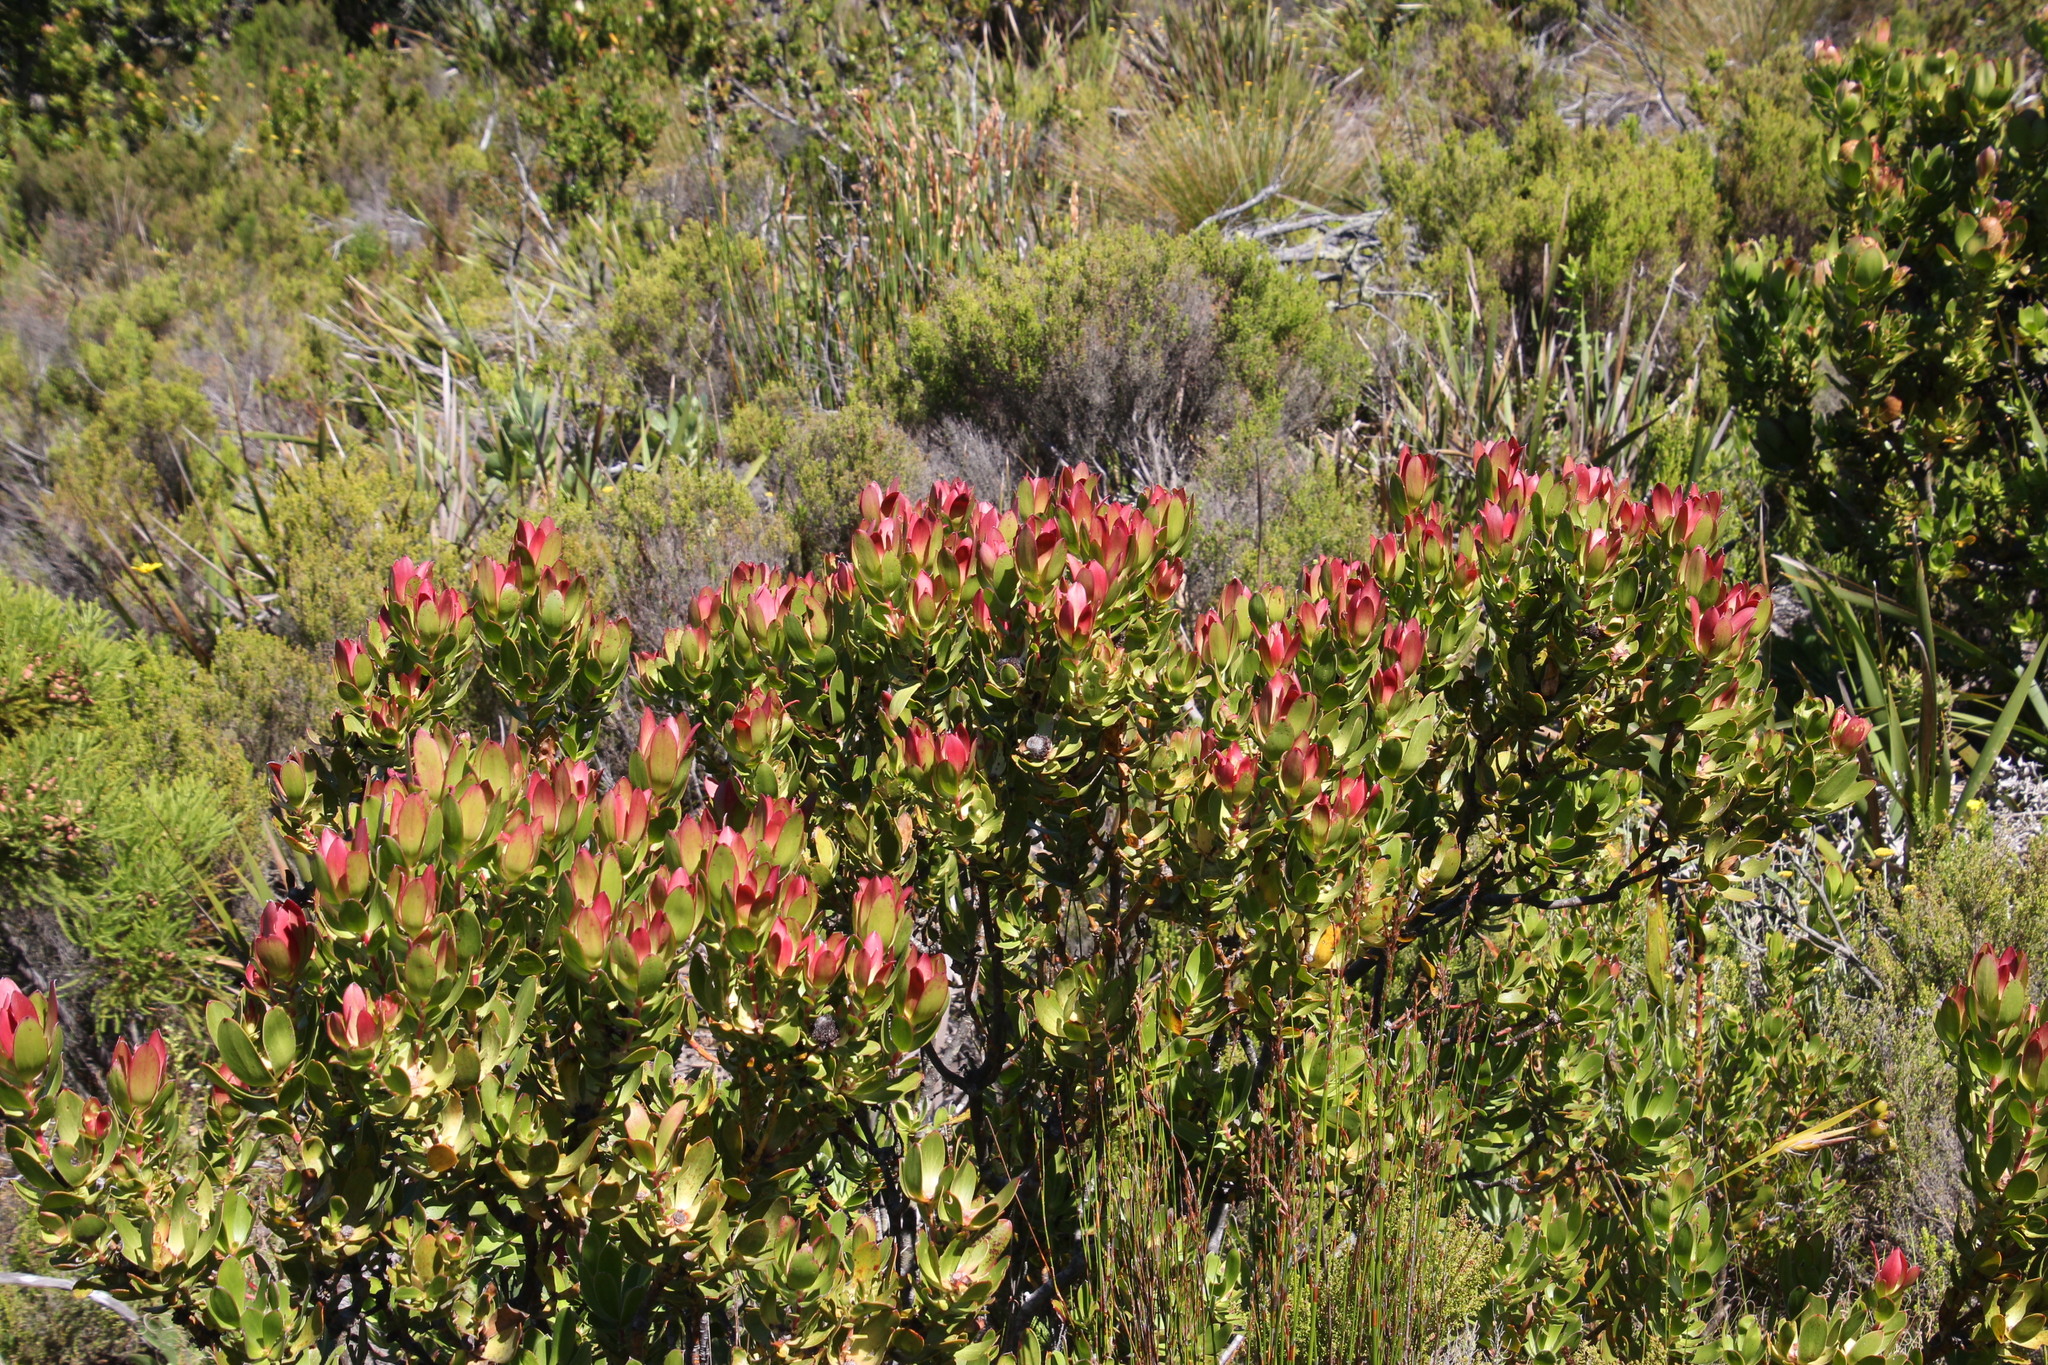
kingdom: Plantae
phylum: Tracheophyta
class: Magnoliopsida
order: Proteales
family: Proteaceae
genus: Leucadendron
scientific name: Leucadendron strobilinum
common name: Mountain rose
